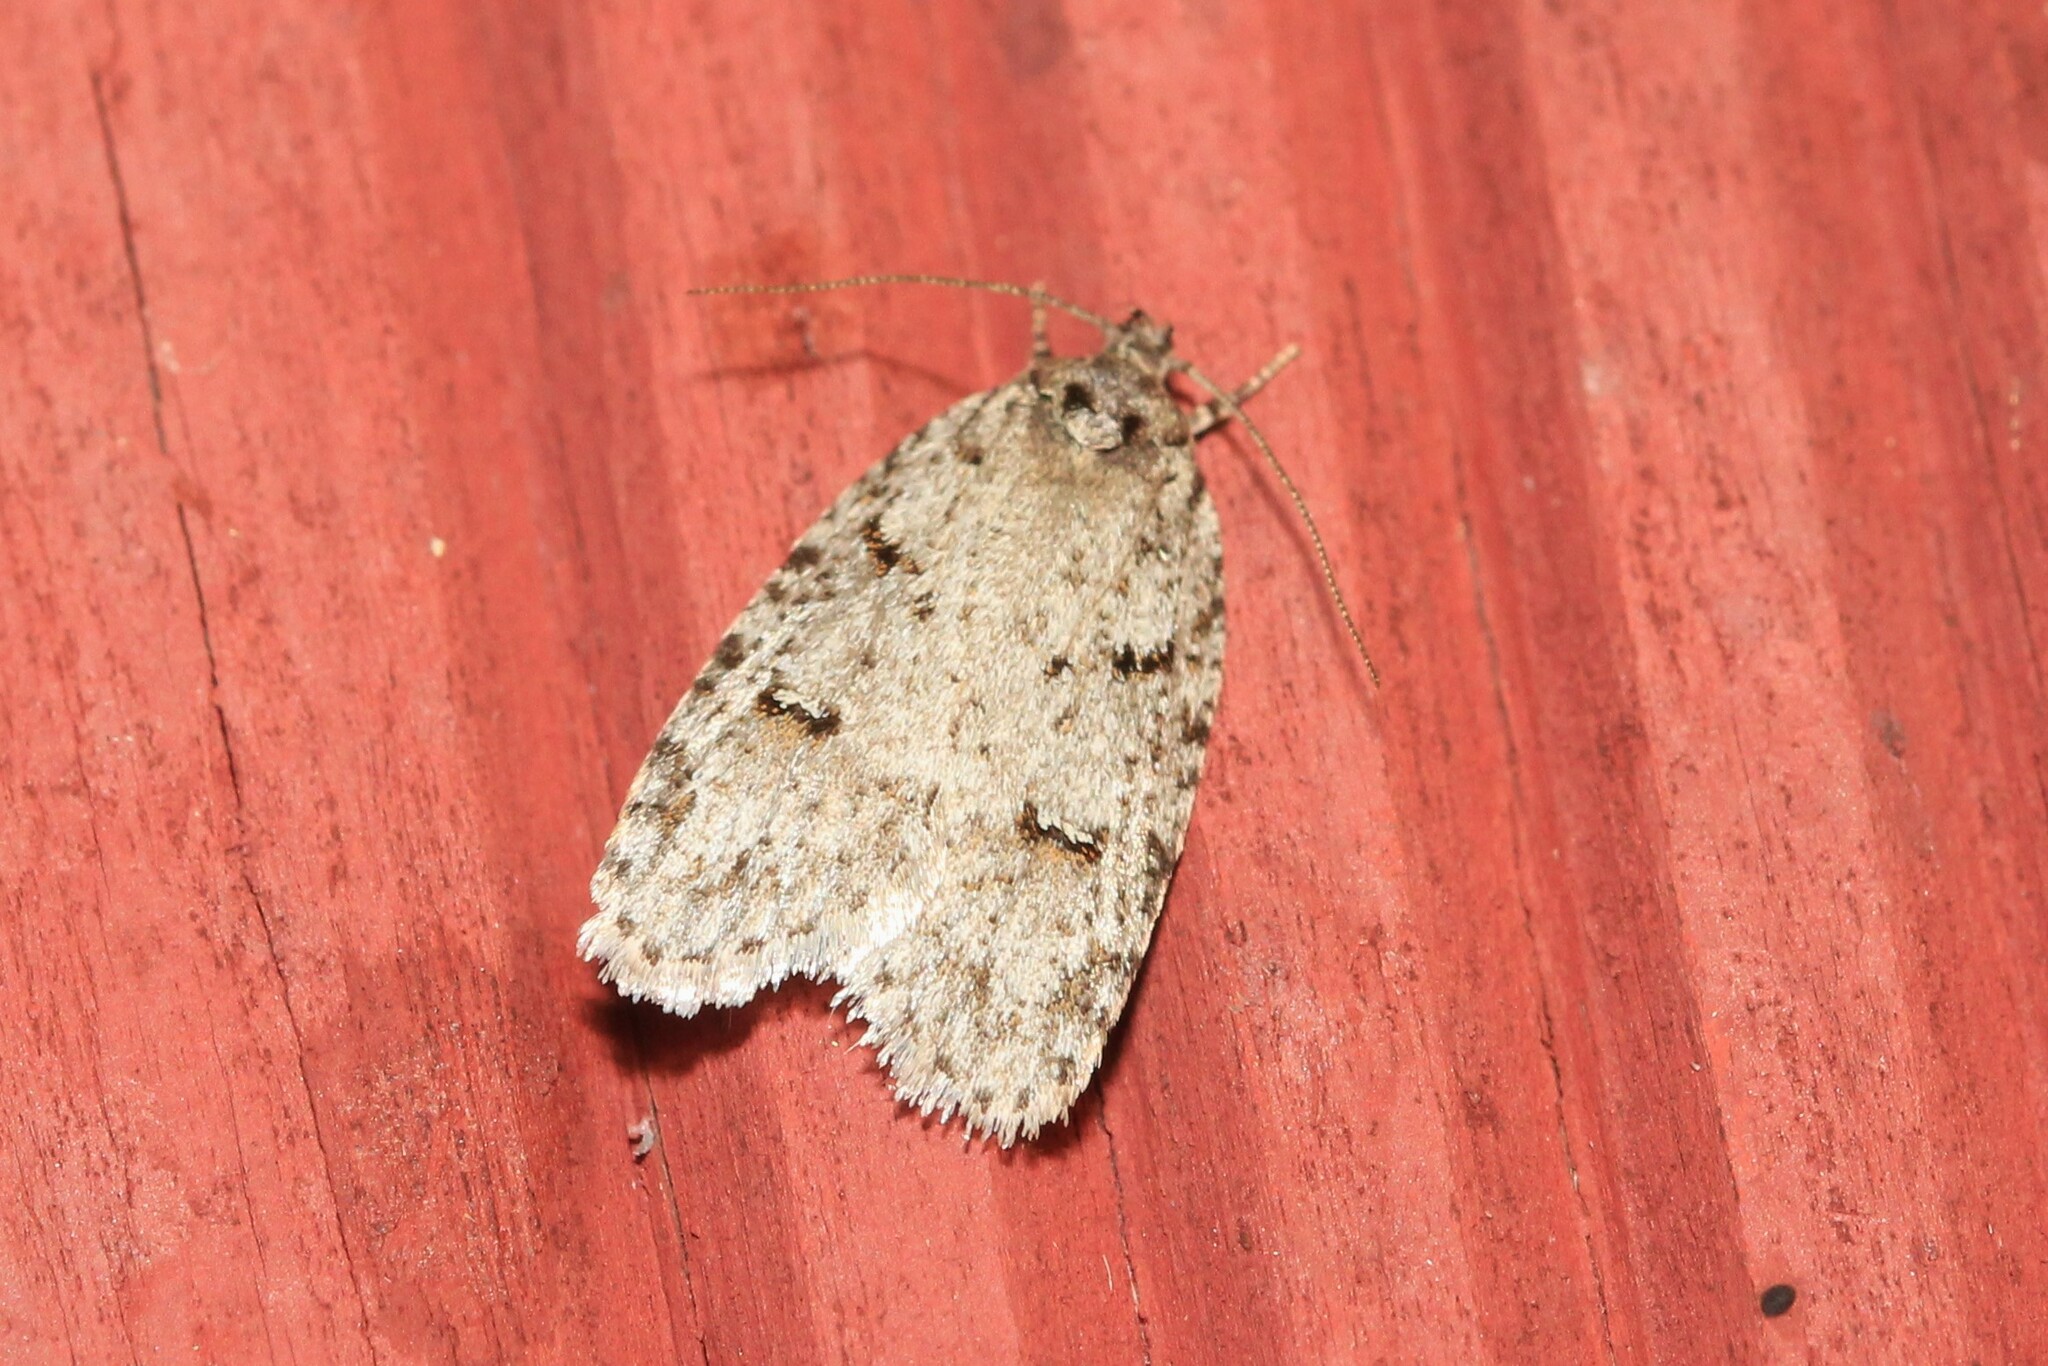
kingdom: Animalia
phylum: Arthropoda
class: Insecta
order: Lepidoptera
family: Depressariidae
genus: Bibarrambla
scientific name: Bibarrambla allenella
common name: Bog bibarrambla moth
